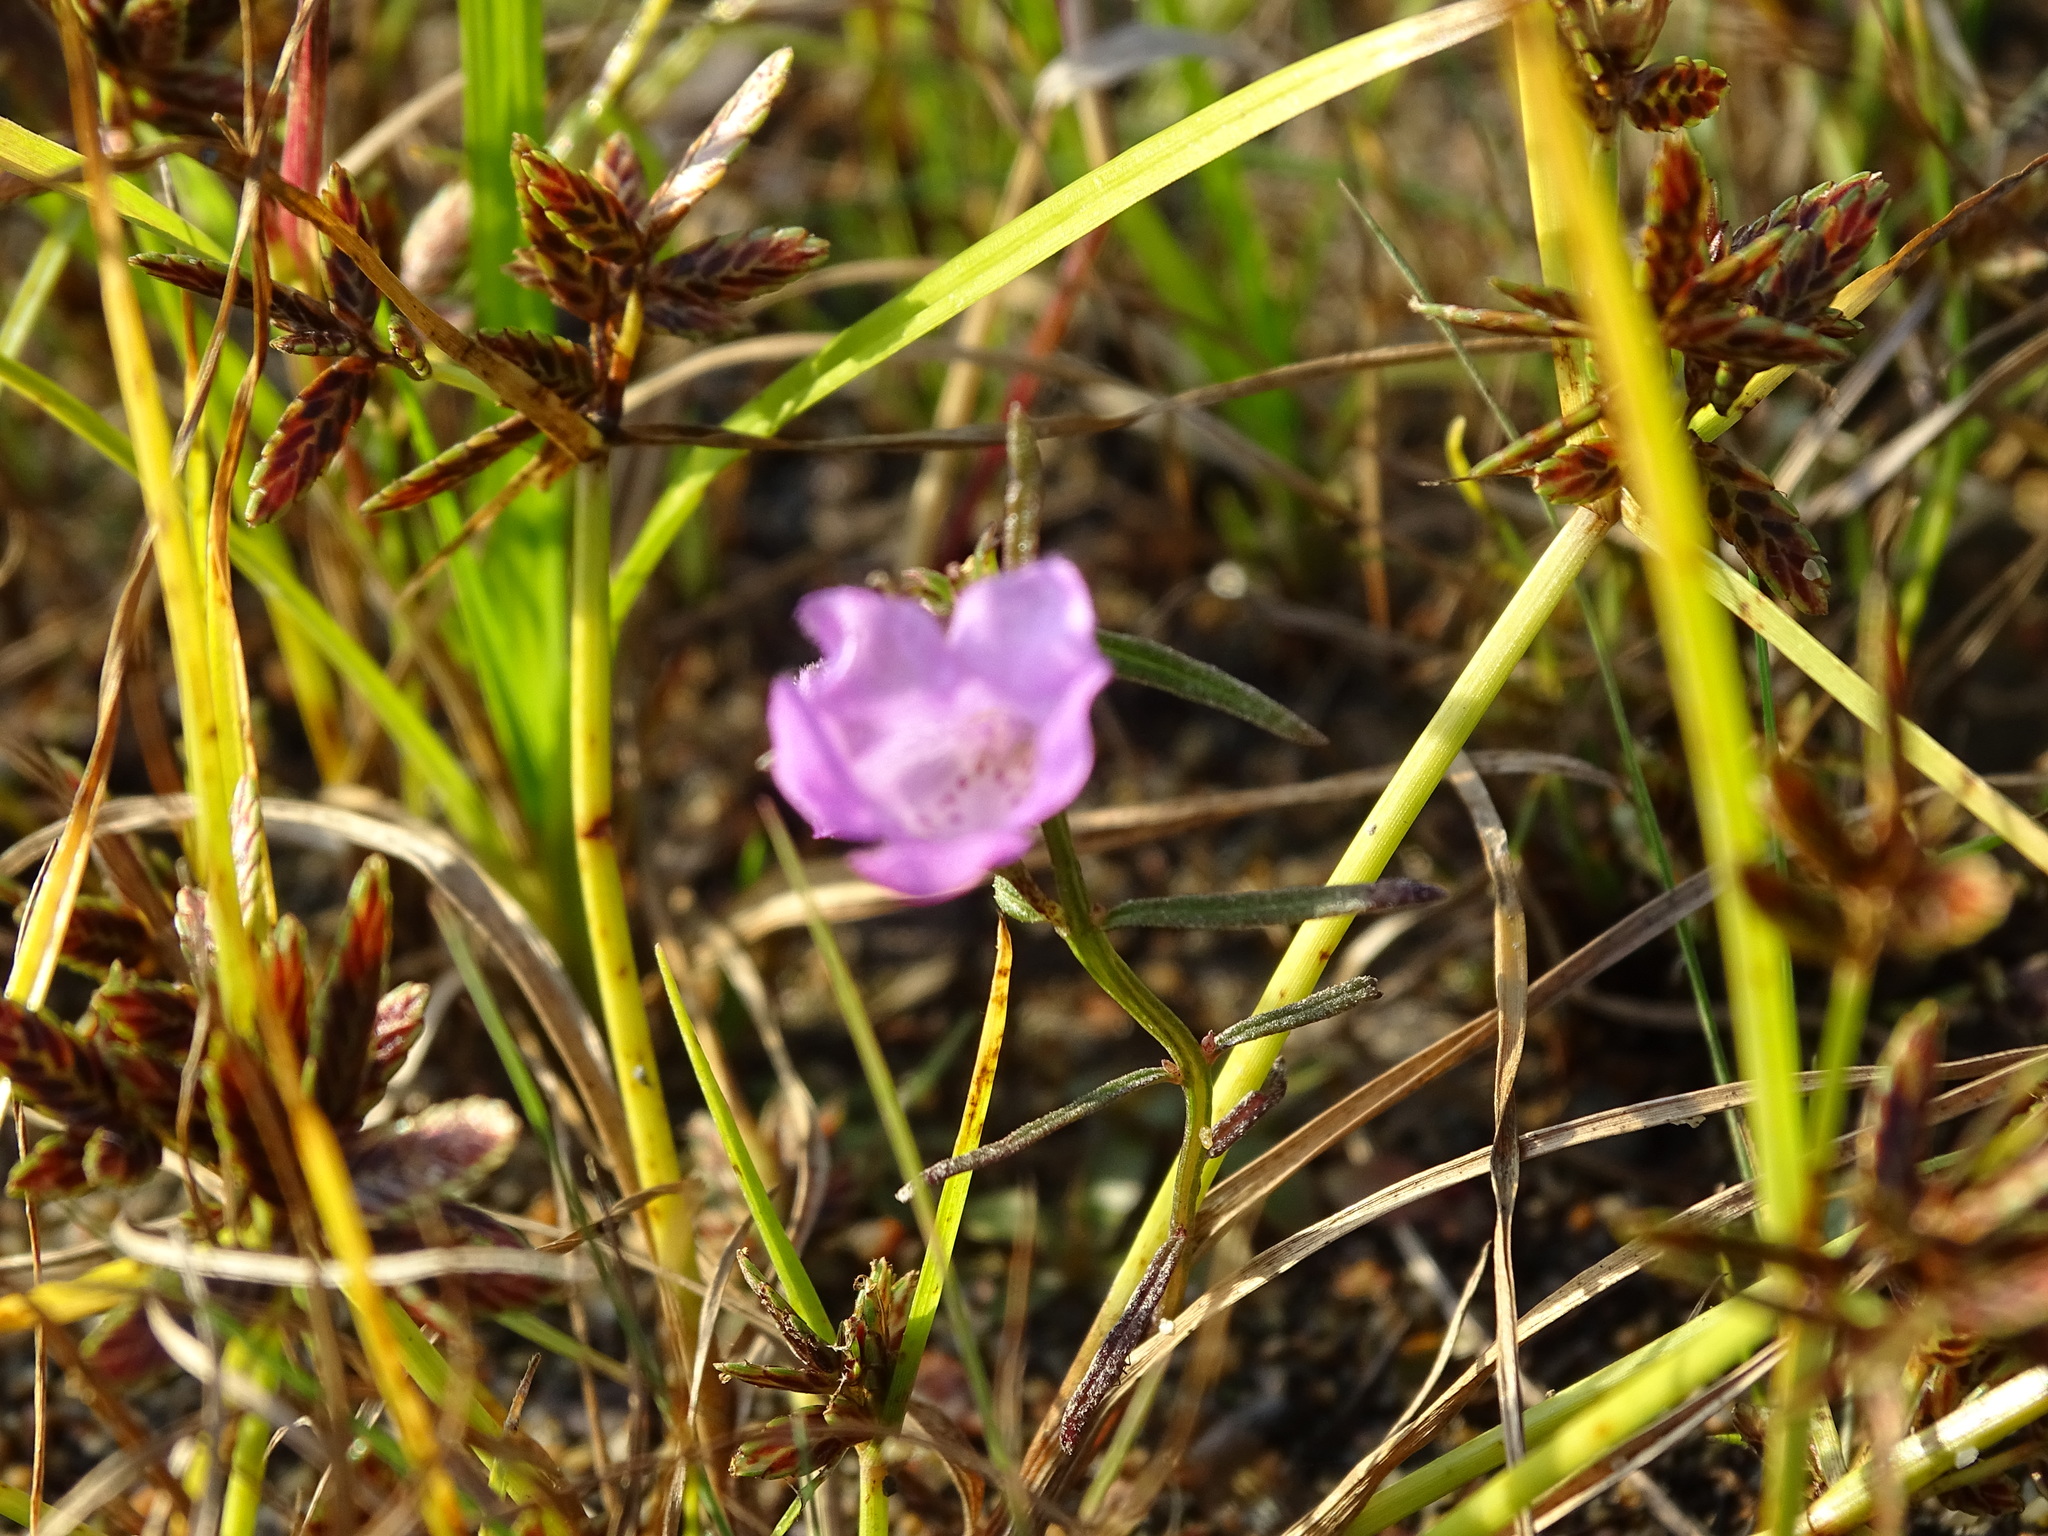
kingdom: Plantae
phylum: Tracheophyta
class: Magnoliopsida
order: Lamiales
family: Orobanchaceae
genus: Agalinis
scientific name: Agalinis purpurea
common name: Purple false foxglove
